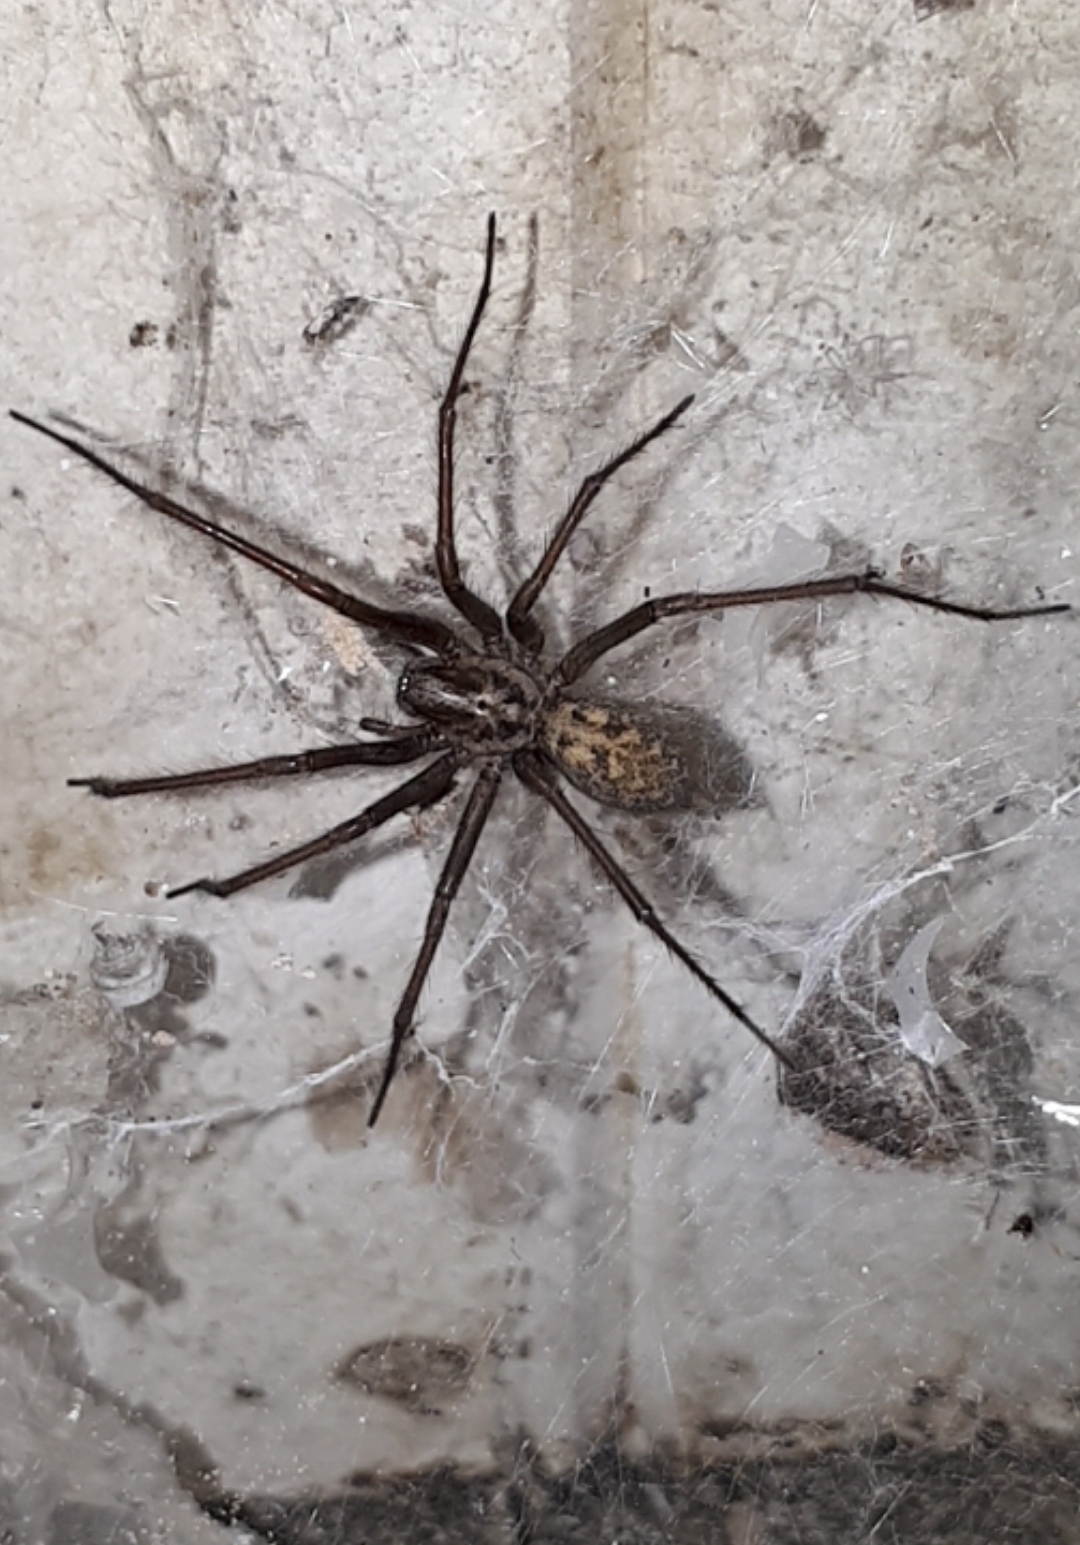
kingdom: Animalia
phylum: Arthropoda
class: Arachnida
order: Araneae
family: Agelenidae
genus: Eratigena
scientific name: Eratigena
